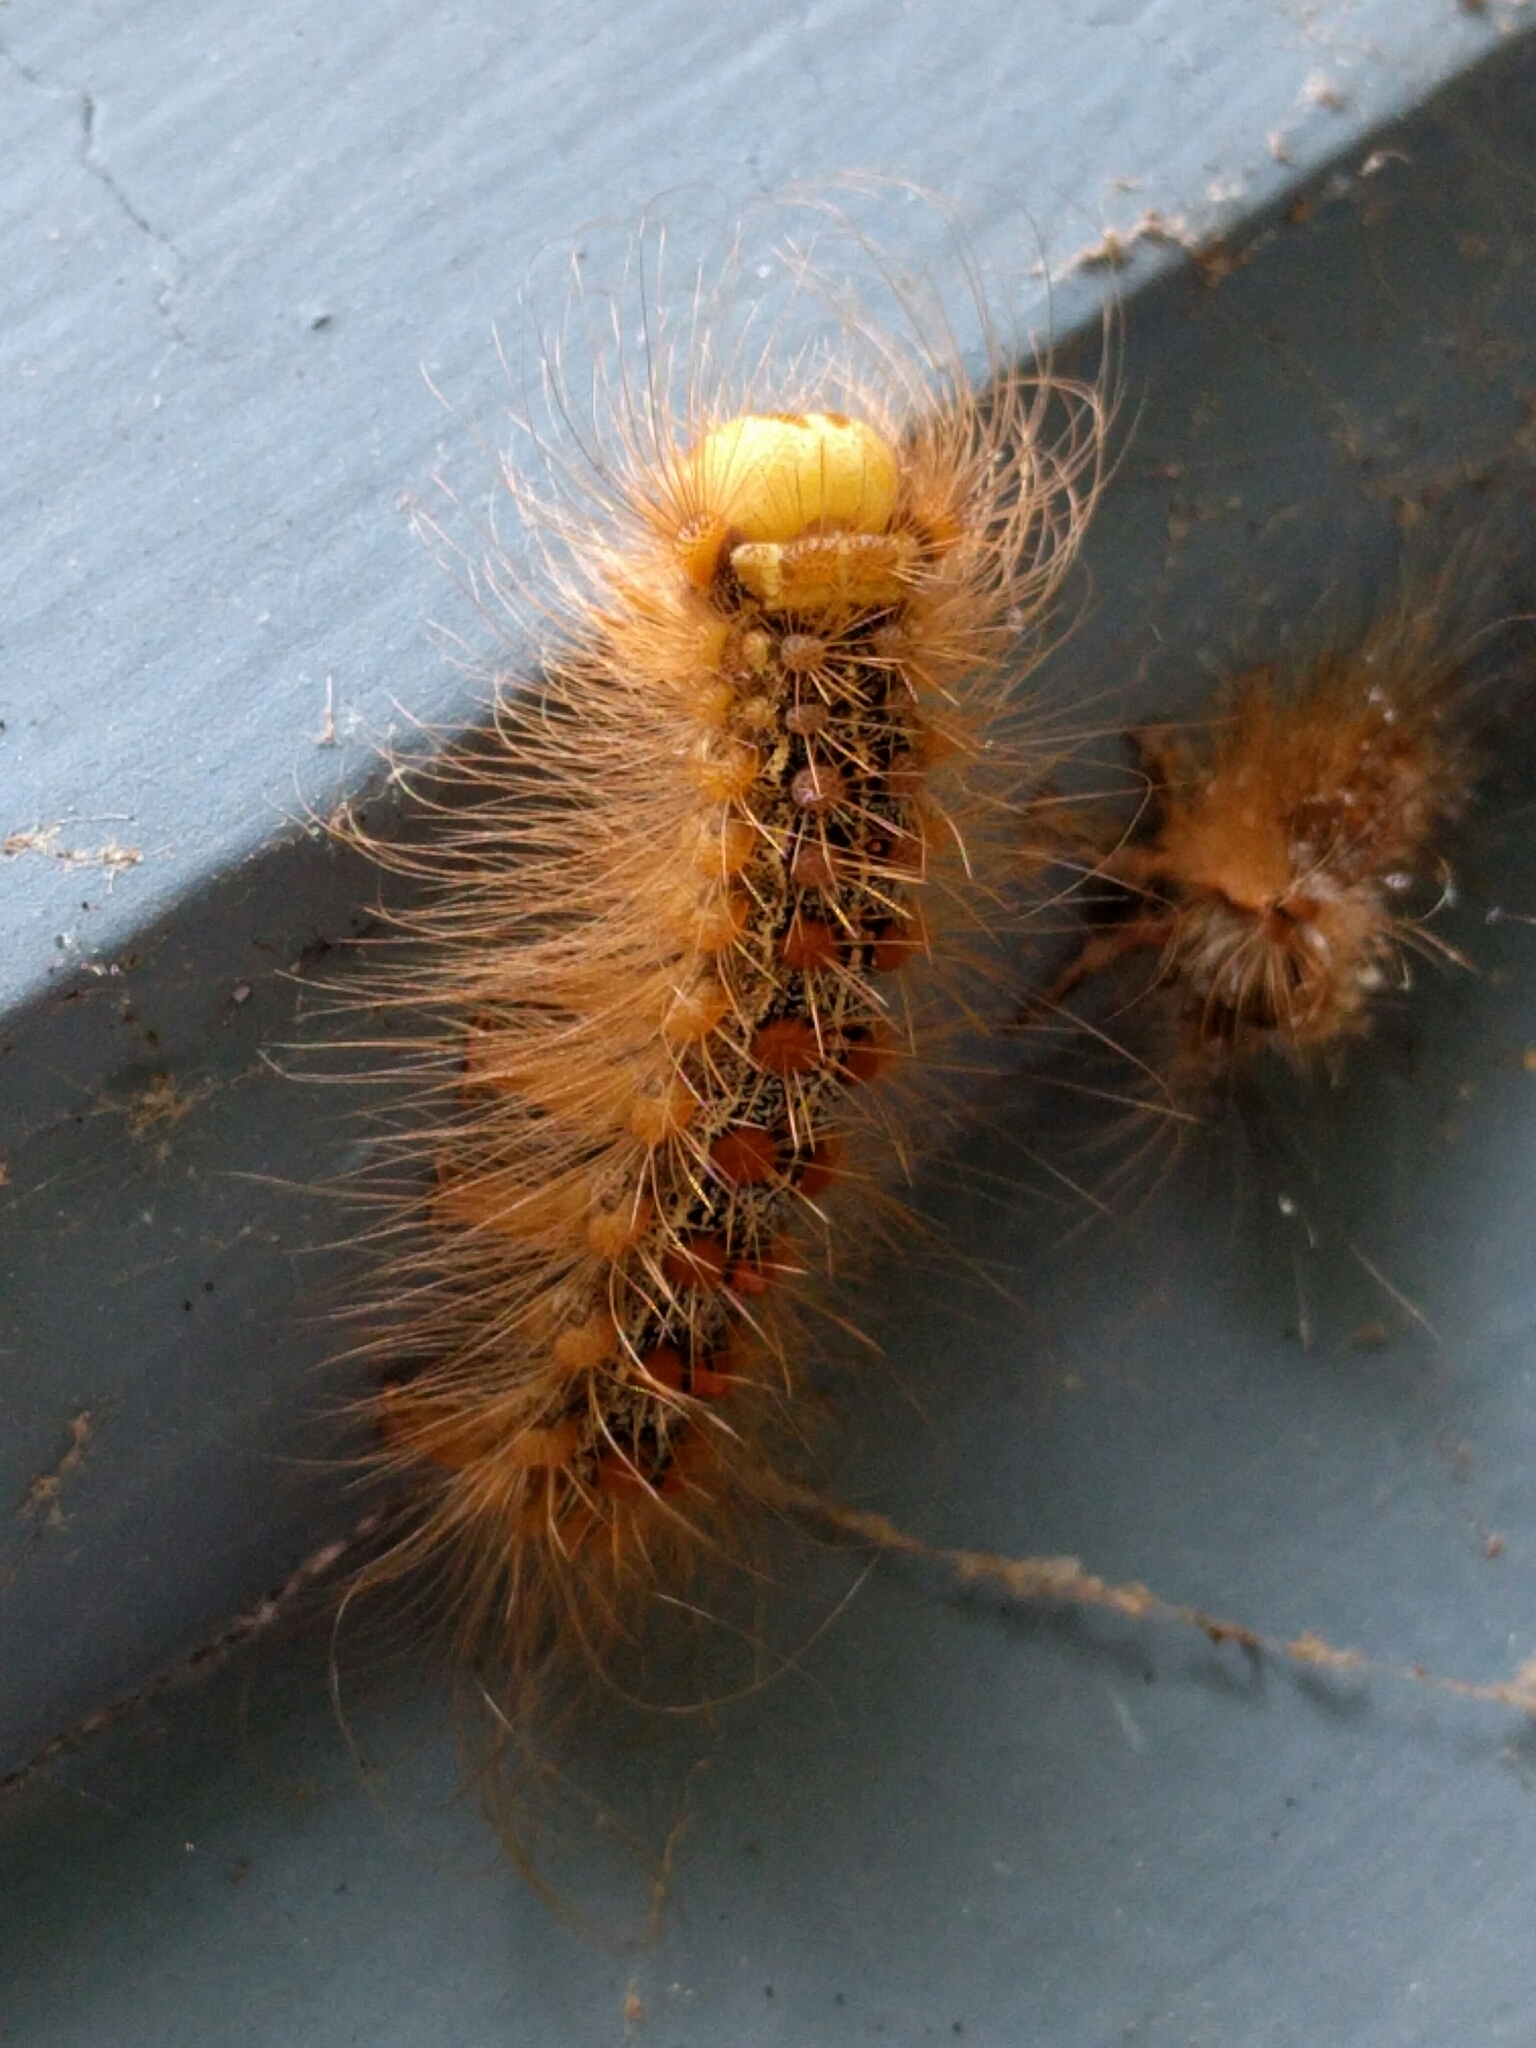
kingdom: Animalia
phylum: Arthropoda
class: Insecta
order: Lepidoptera
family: Erebidae
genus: Lymantria
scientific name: Lymantria dispar
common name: Gypsy moth
